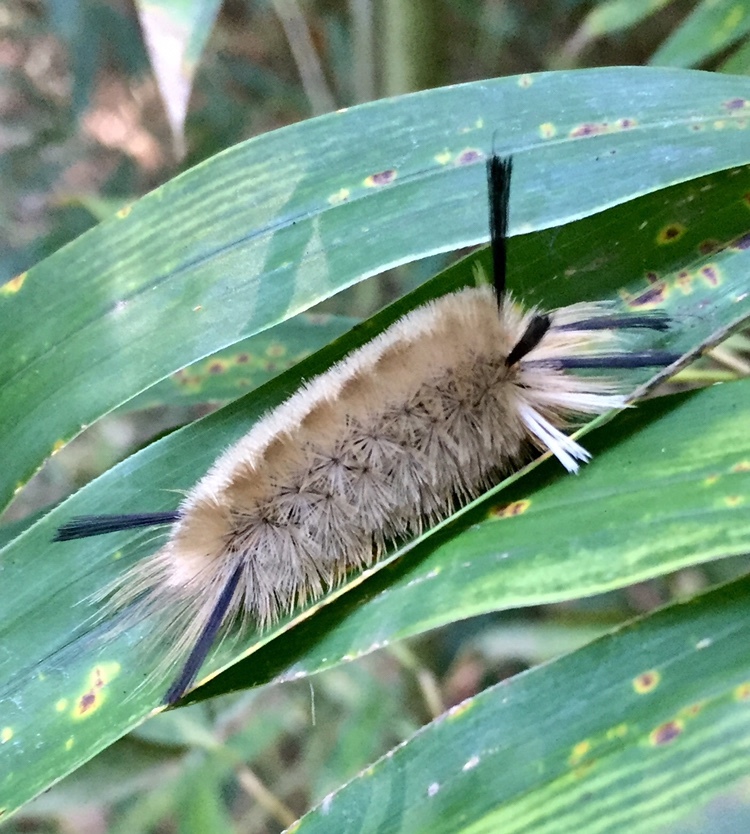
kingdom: Animalia
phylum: Arthropoda
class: Insecta
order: Lepidoptera
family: Erebidae
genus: Halysidota
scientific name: Halysidota tessellaris
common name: Banded tussock moth
